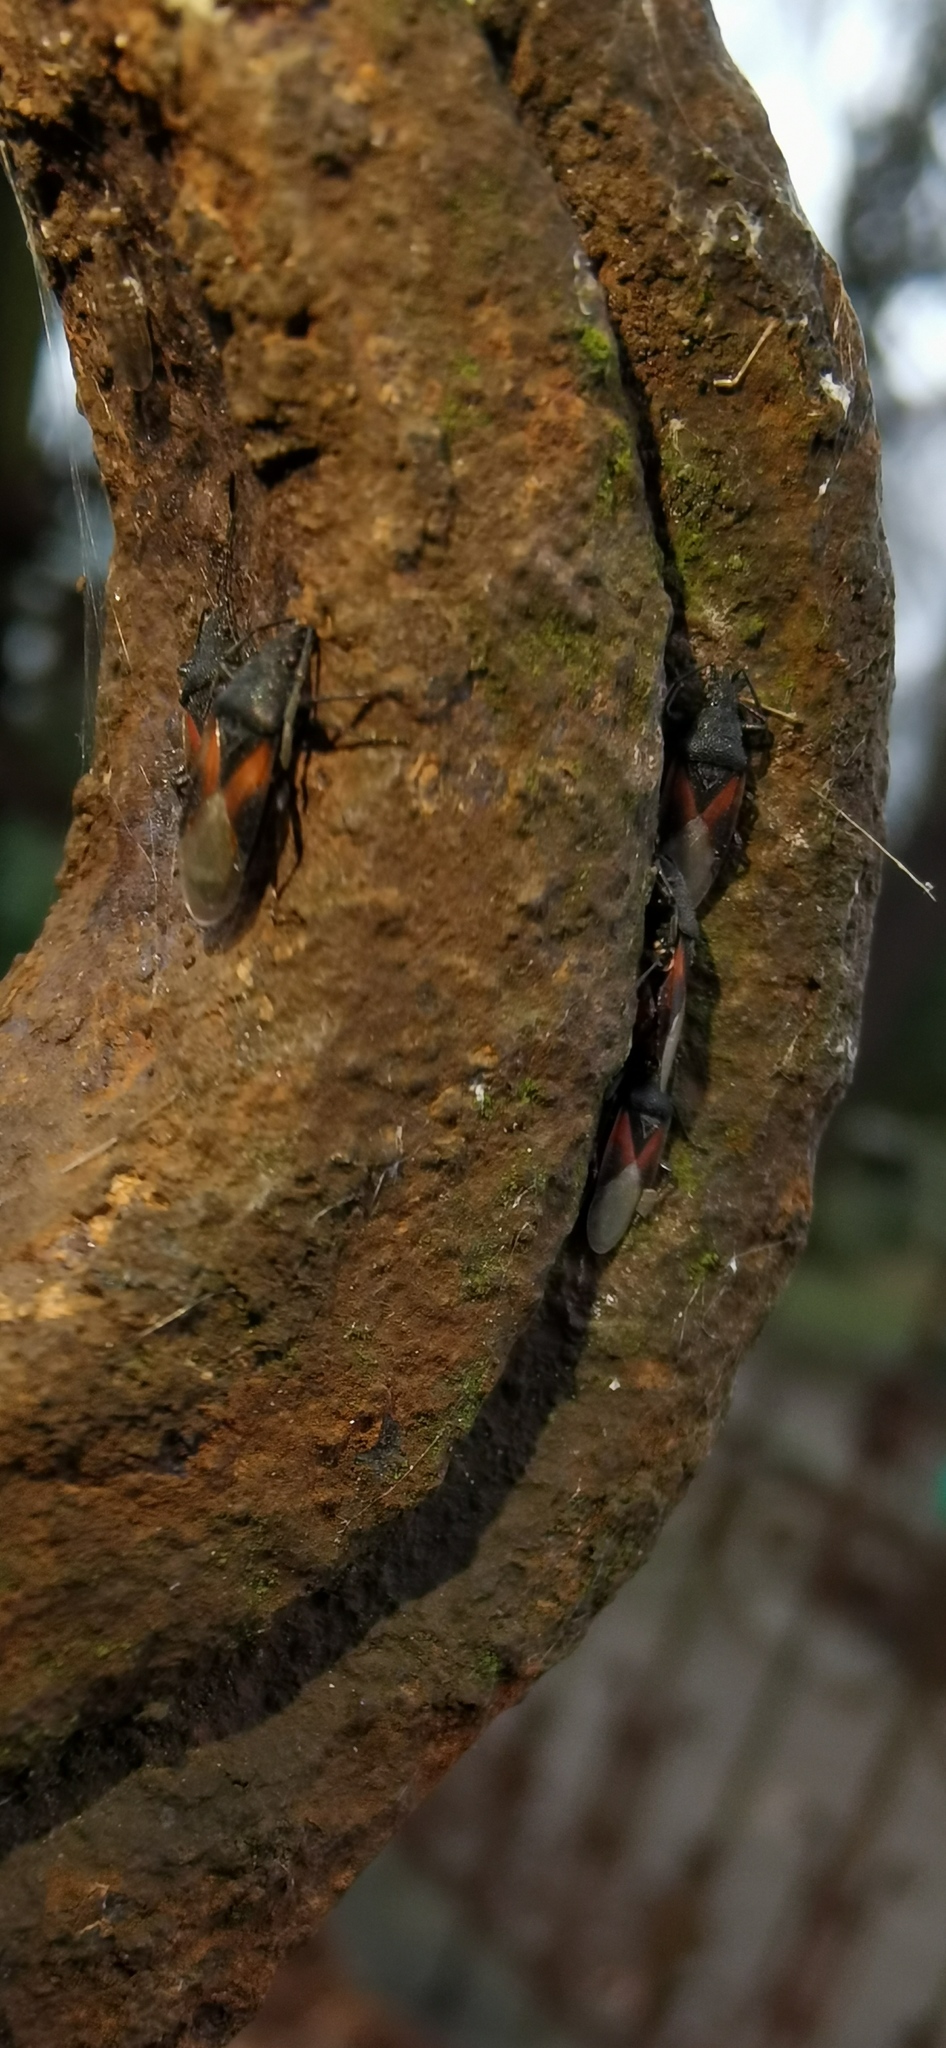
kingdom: Animalia
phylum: Arthropoda
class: Insecta
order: Hemiptera
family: Oxycarenidae
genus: Oxycarenus
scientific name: Oxycarenus lavaterae
